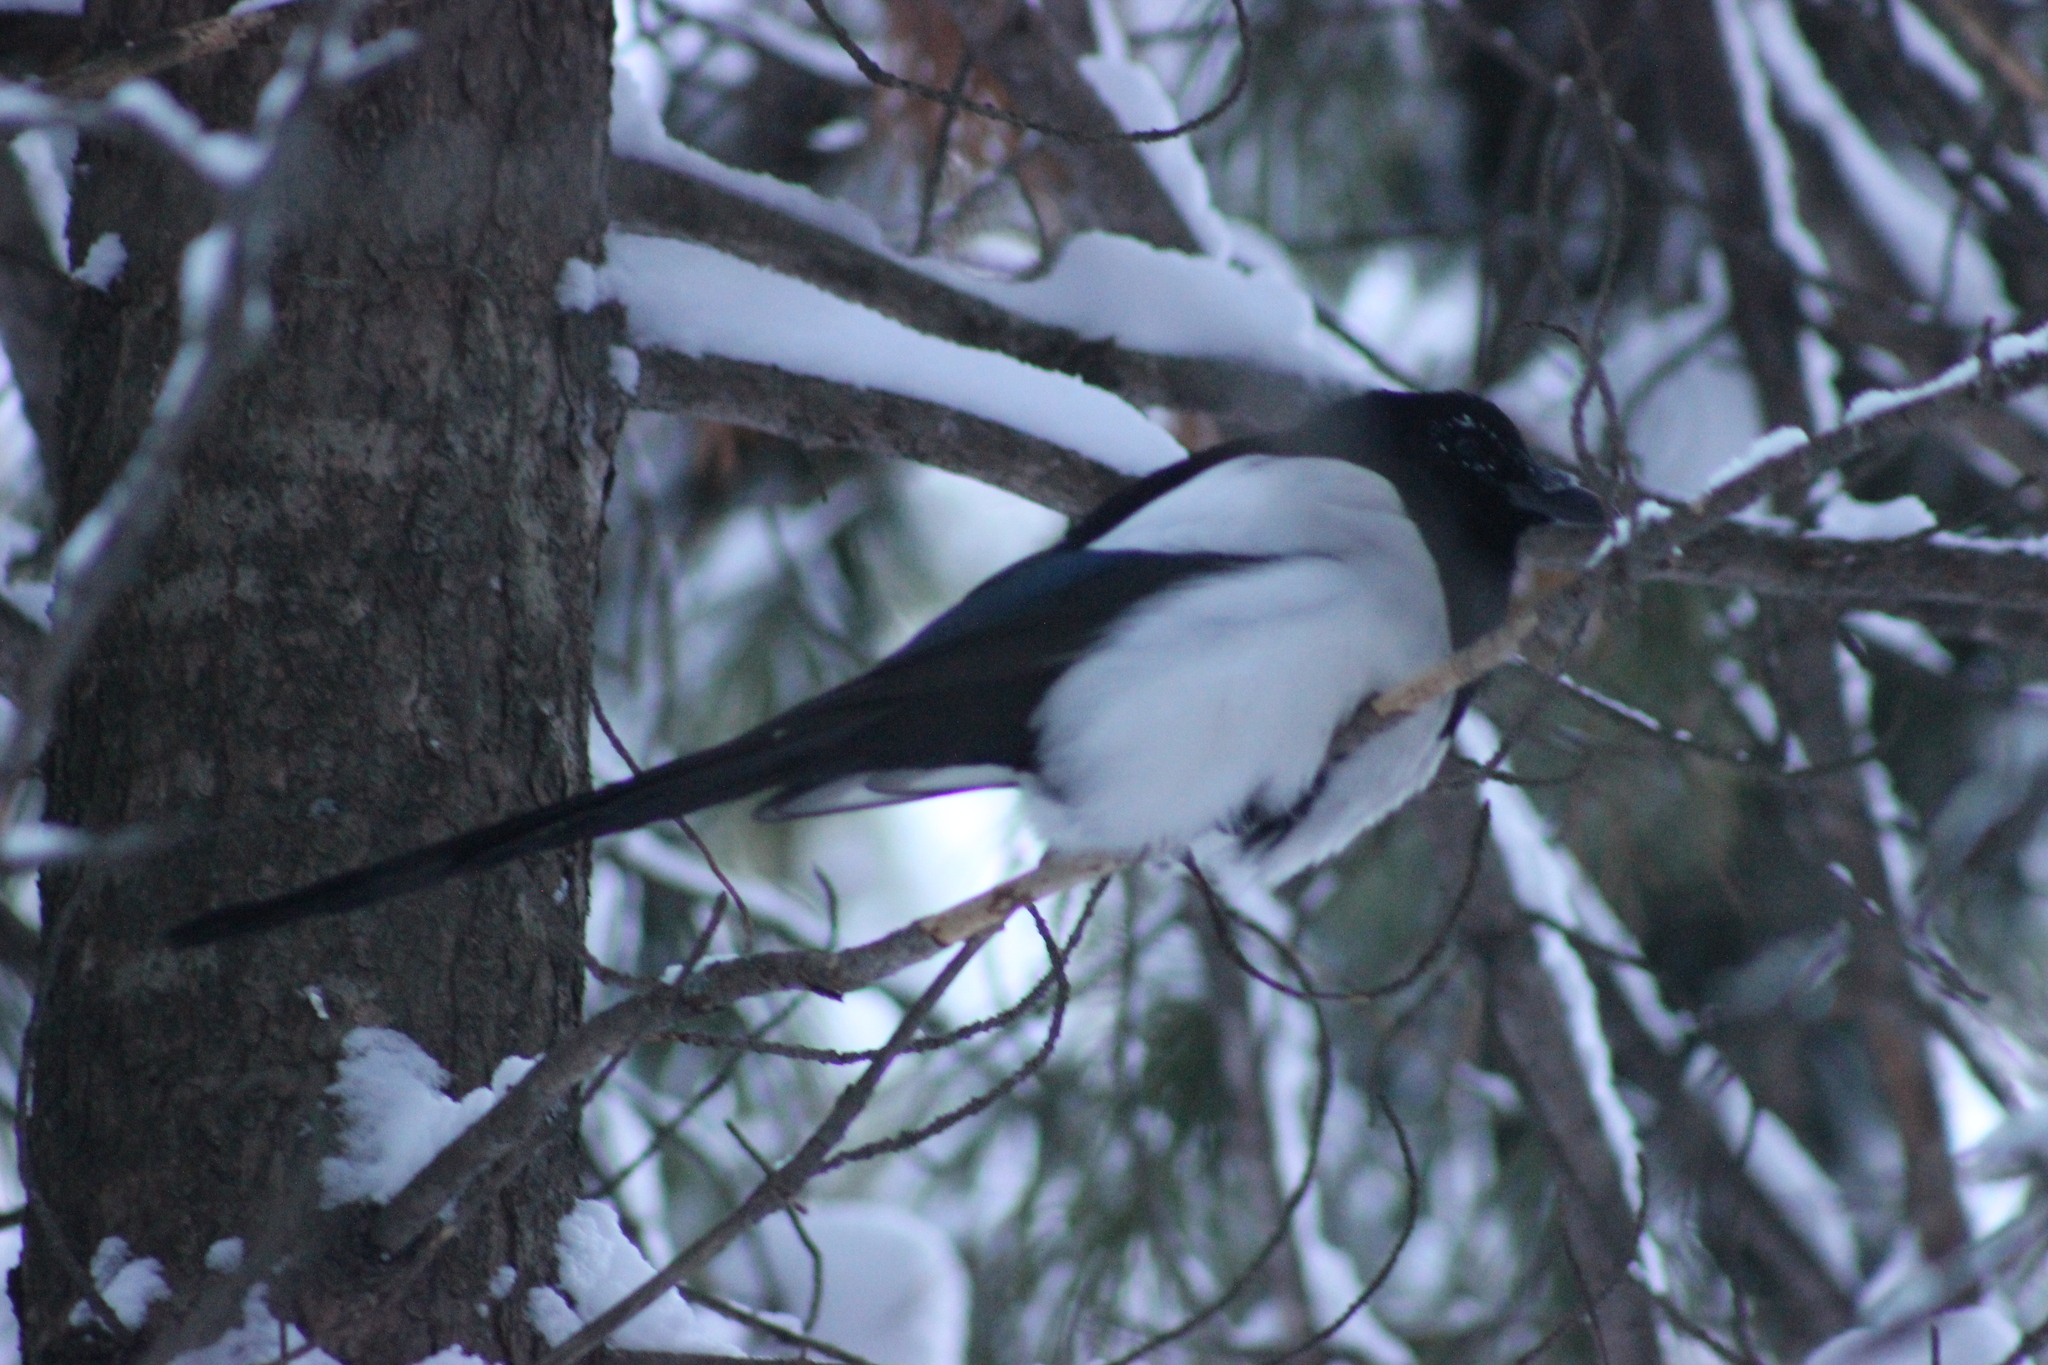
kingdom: Animalia
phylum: Chordata
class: Aves
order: Passeriformes
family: Corvidae
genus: Pica
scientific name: Pica pica
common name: Eurasian magpie
